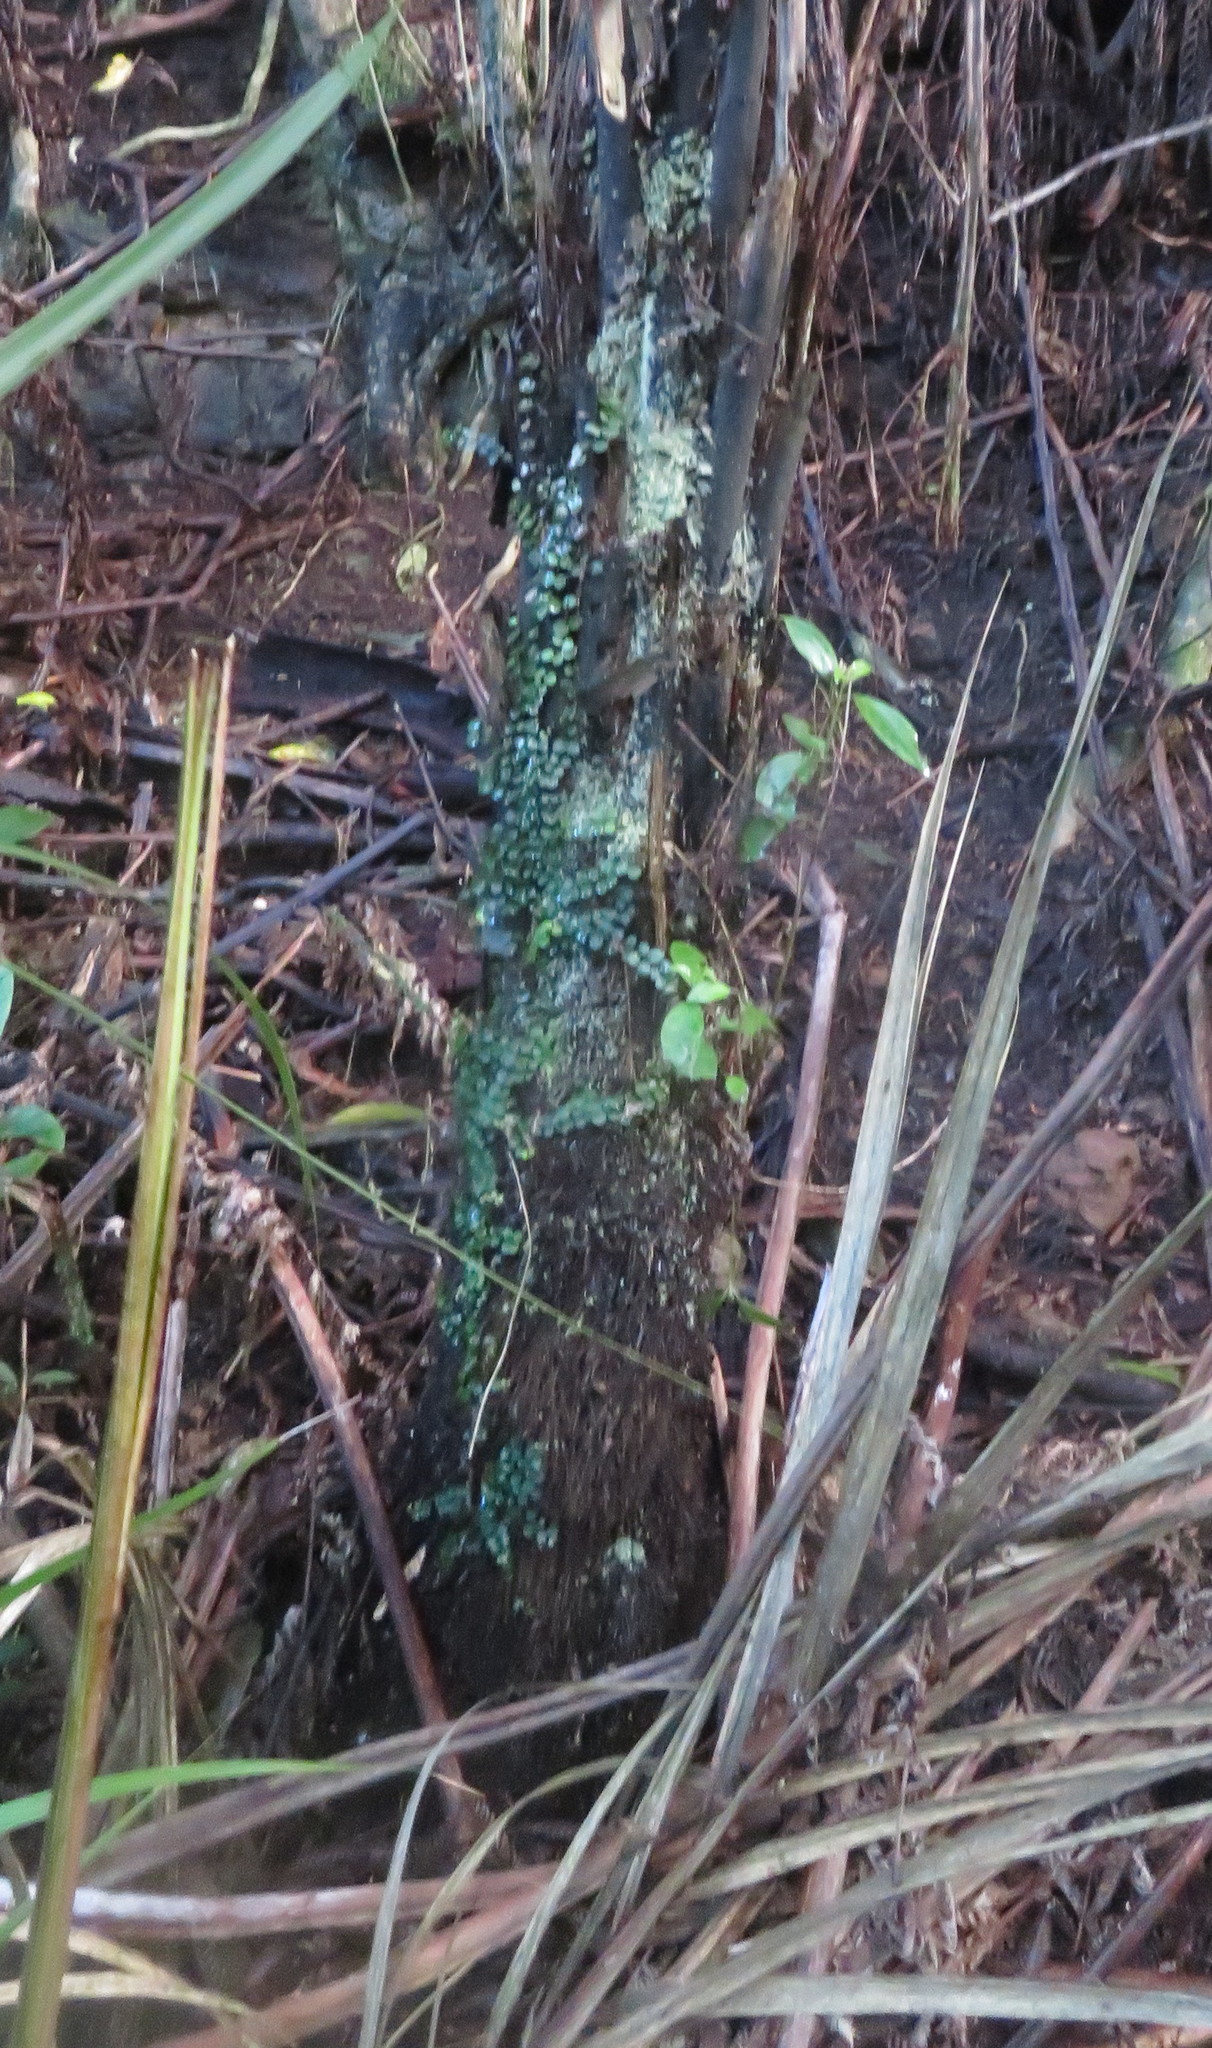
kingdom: Plantae
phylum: Tracheophyta
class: Magnoliopsida
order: Myrtales
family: Myrtaceae
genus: Metrosideros
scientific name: Metrosideros perforata
